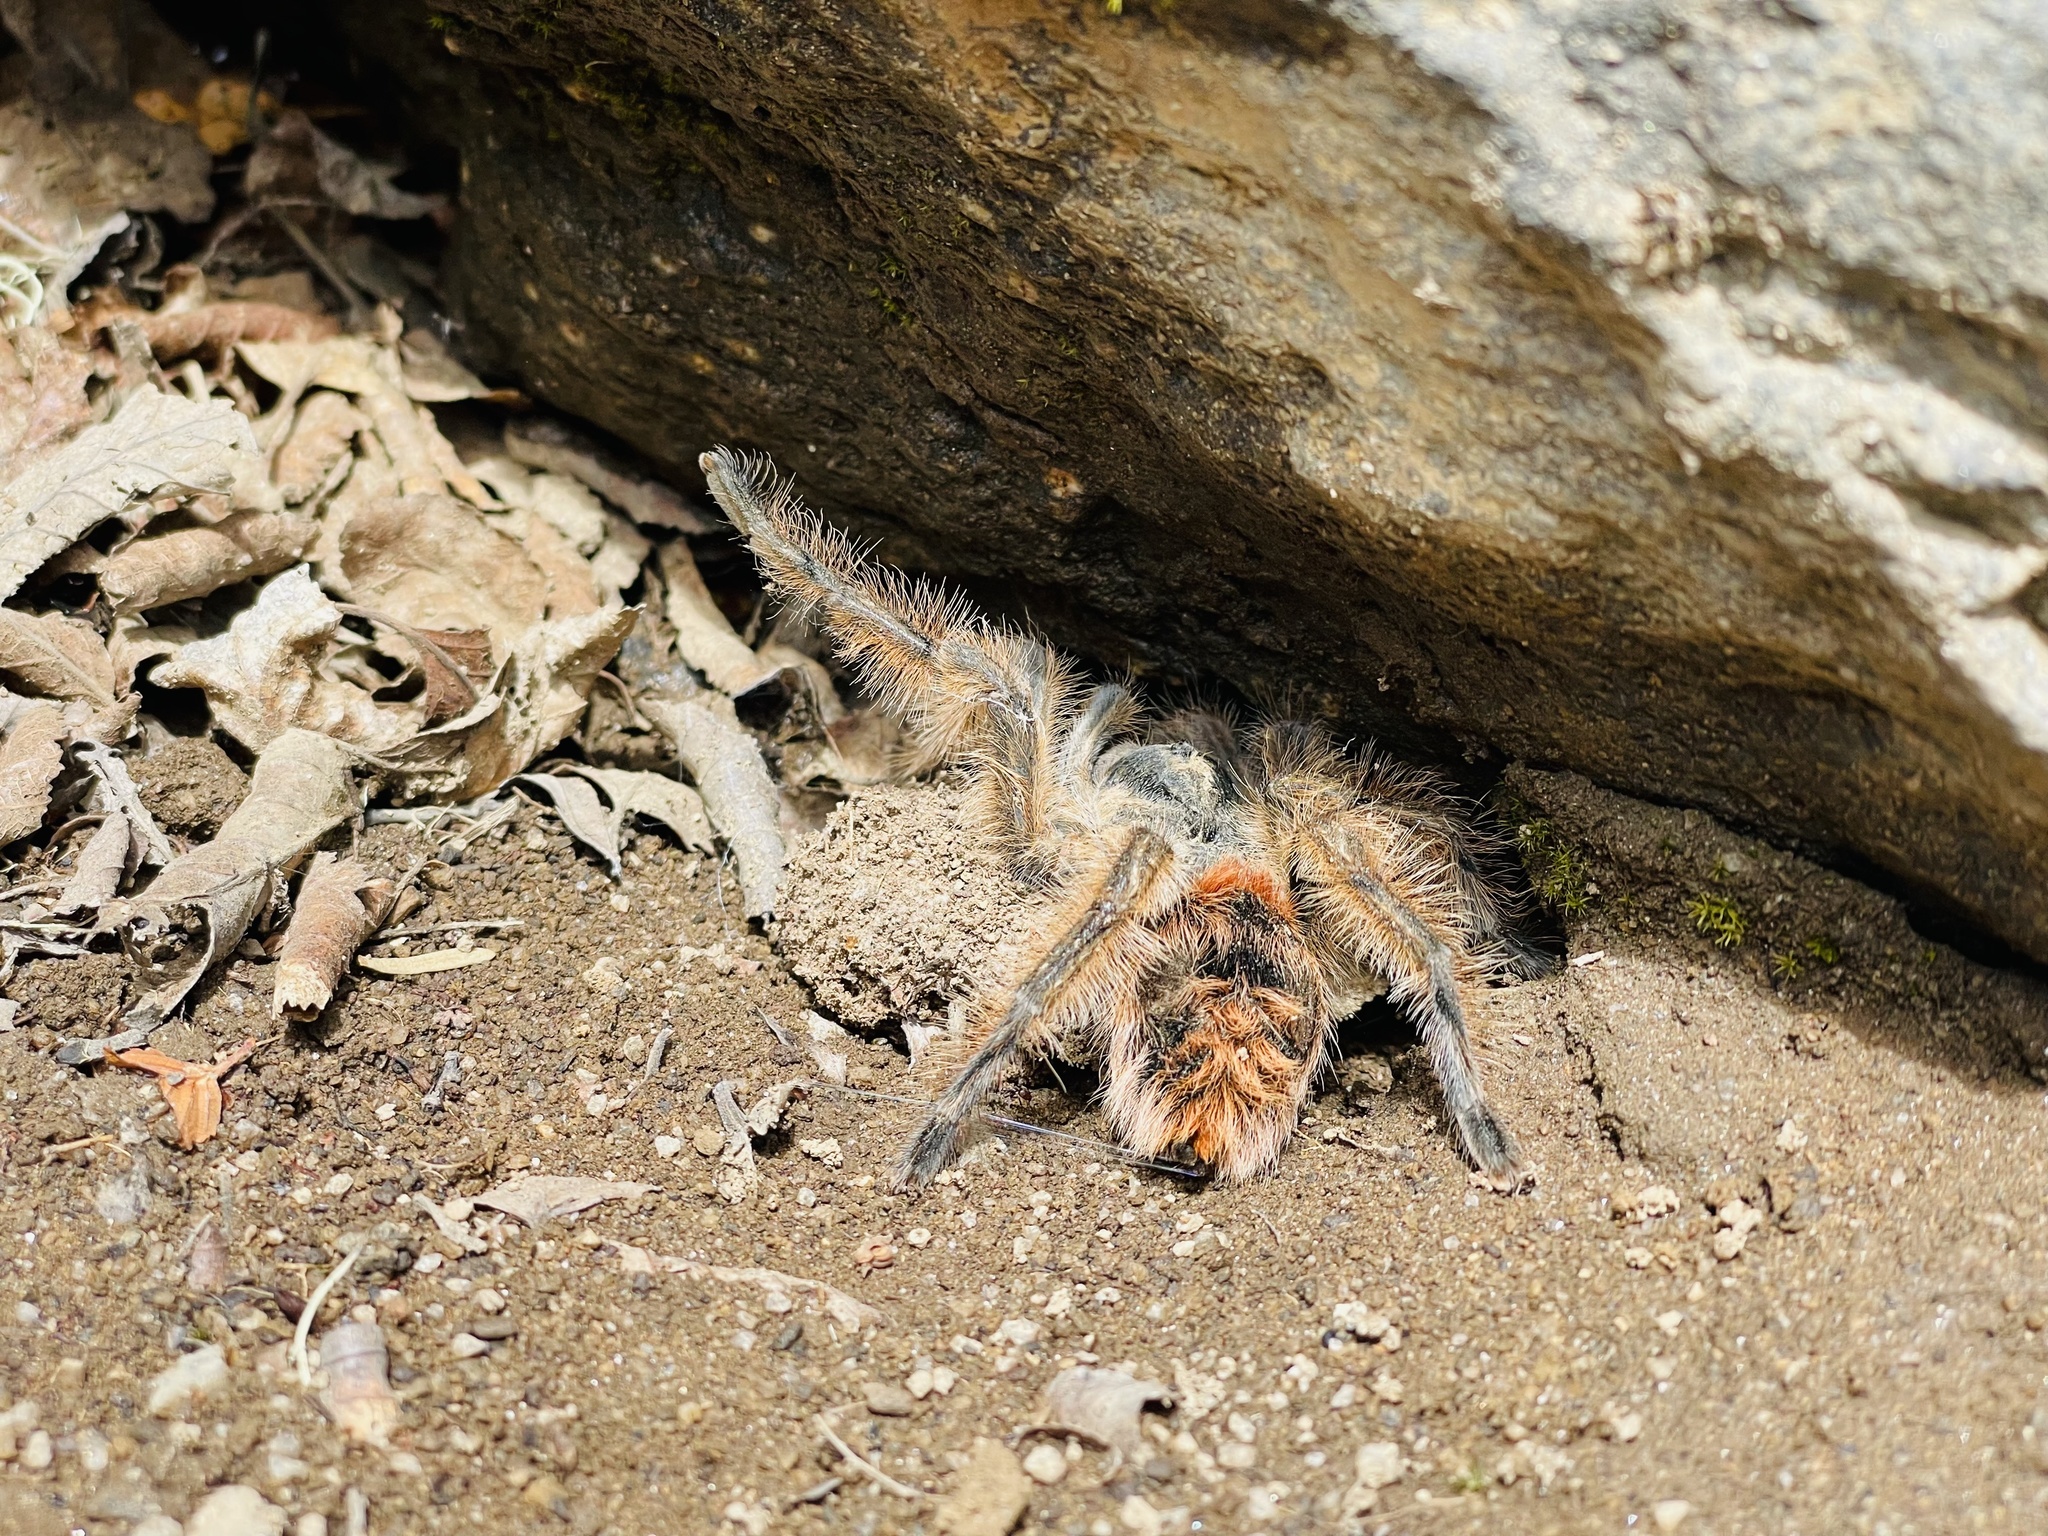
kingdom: Animalia
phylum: Arthropoda
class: Arachnida
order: Araneae
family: Theraphosidae
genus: Phrixotrichus
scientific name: Phrixotrichus vulpinus
